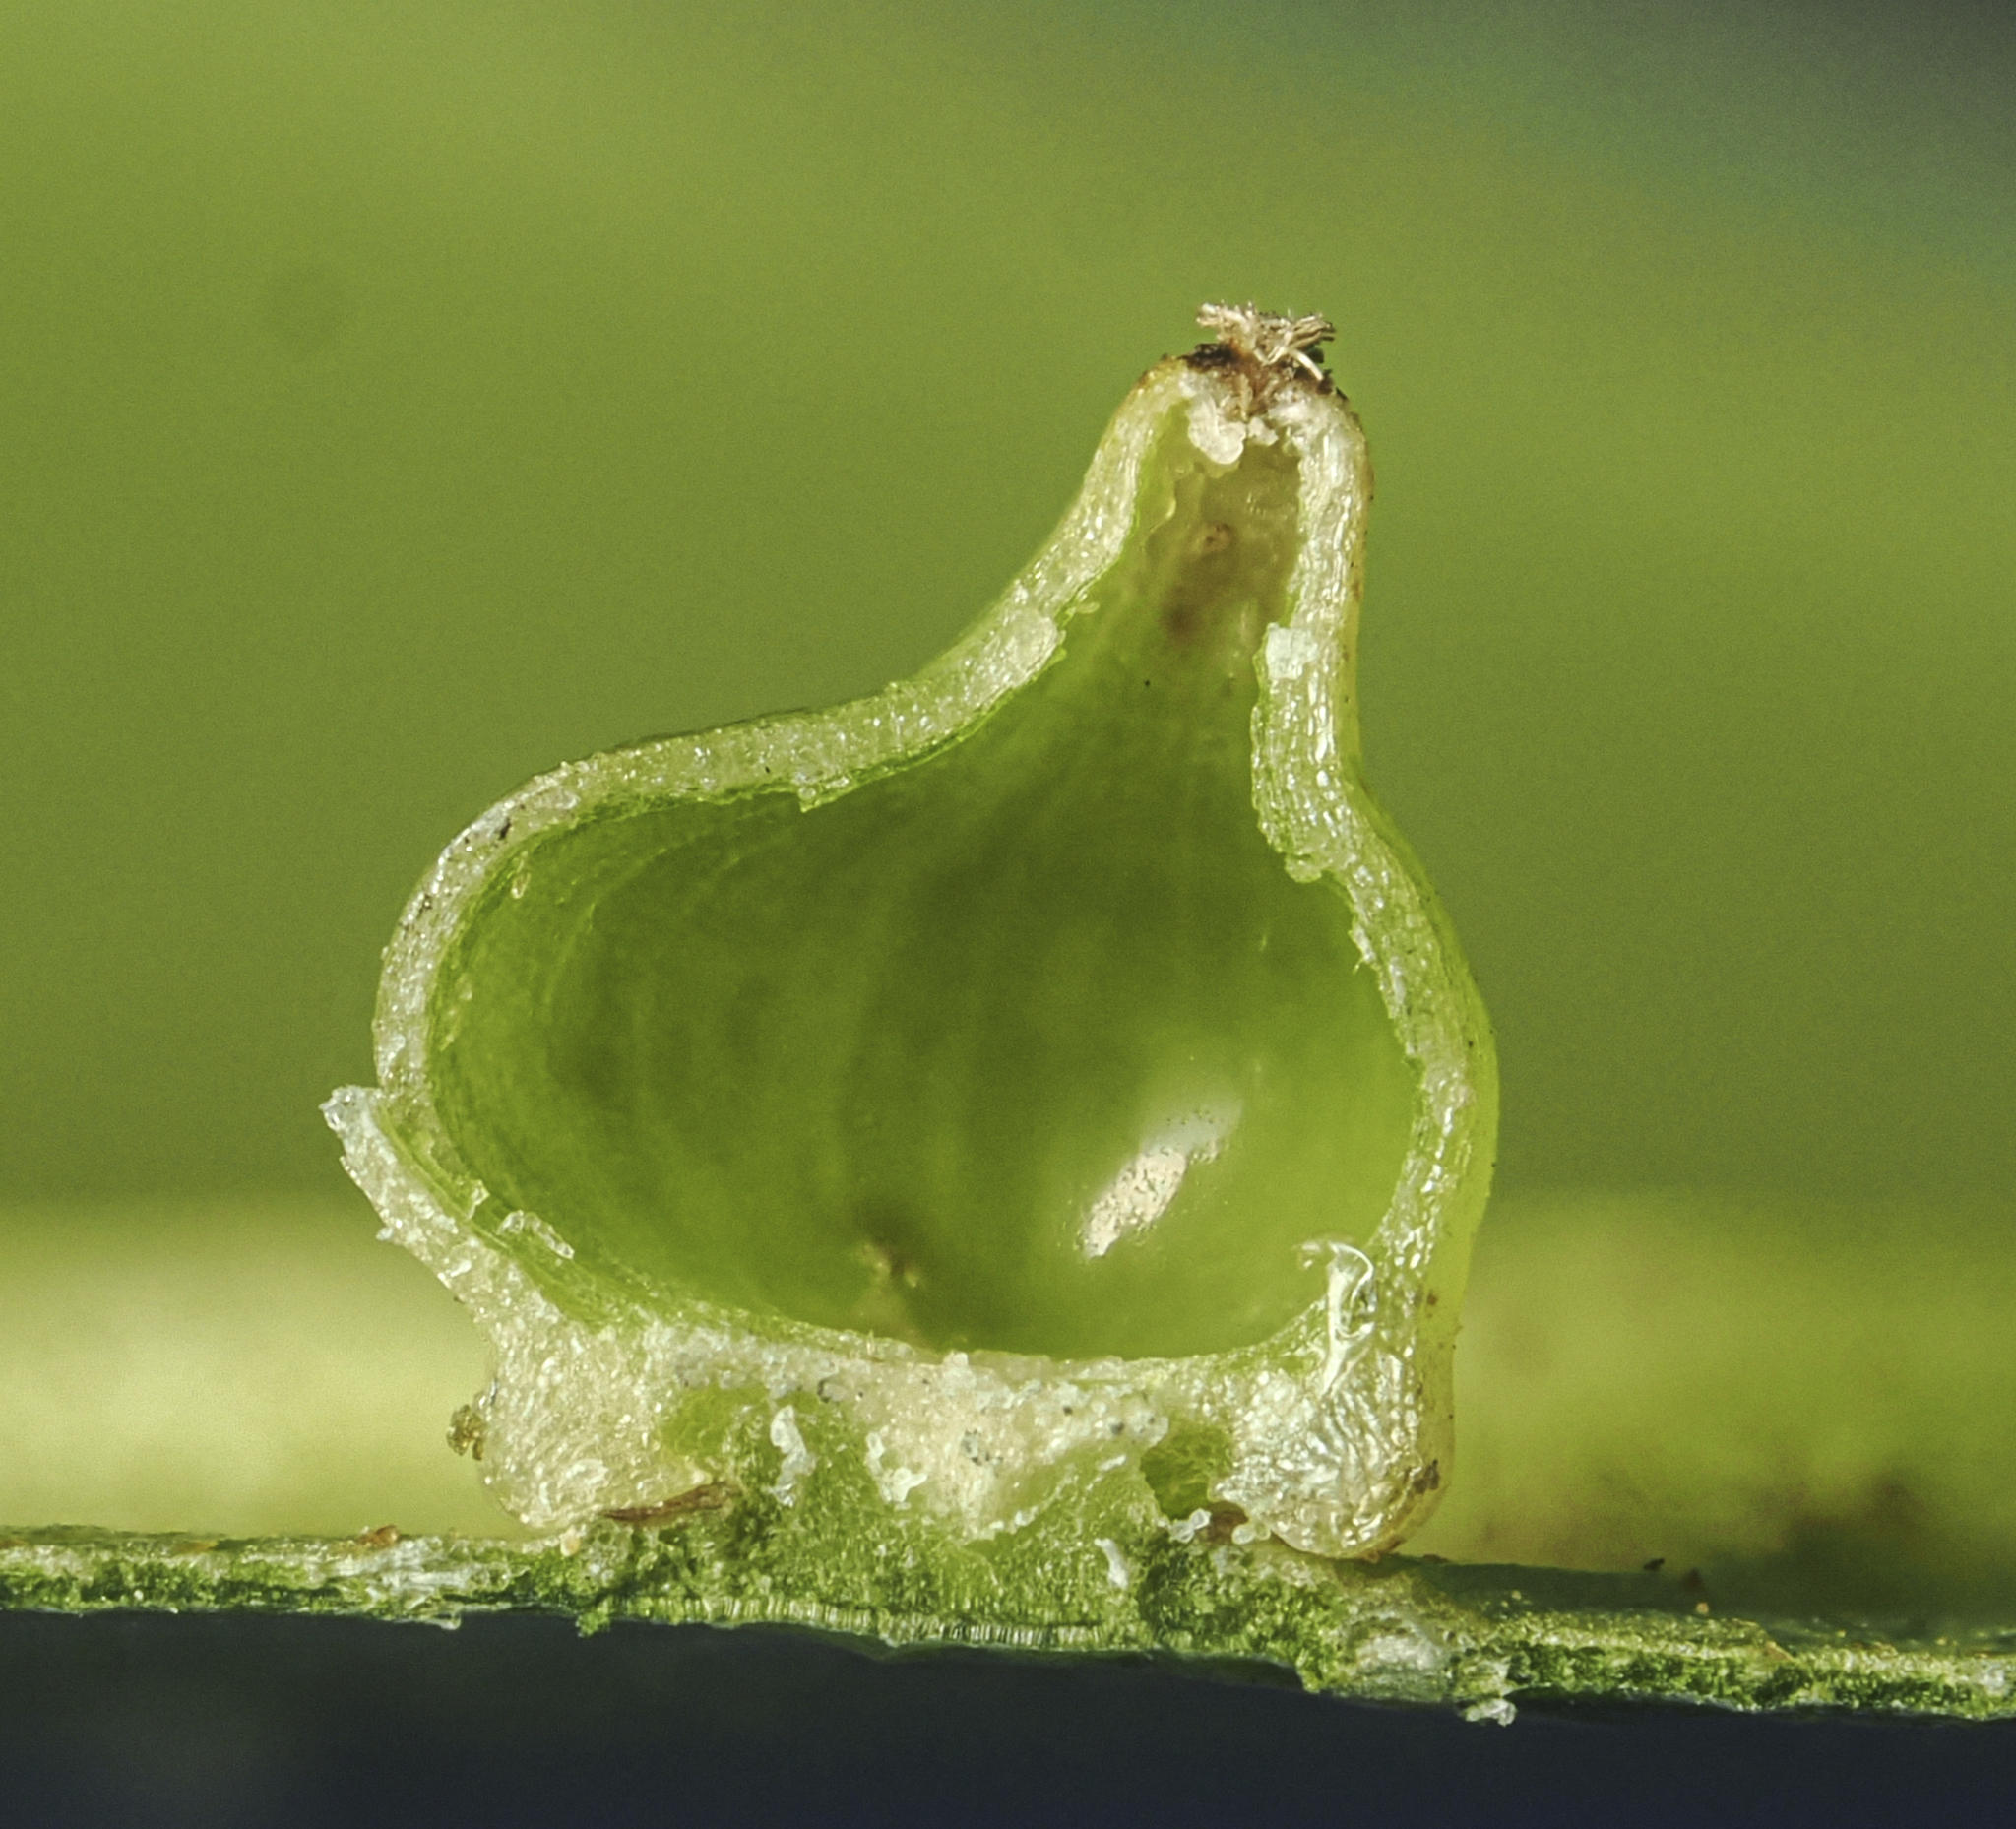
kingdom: Animalia
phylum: Arthropoda
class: Insecta
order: Diptera
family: Cecidomyiidae
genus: Caryomyia
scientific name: Caryomyia shmoo
